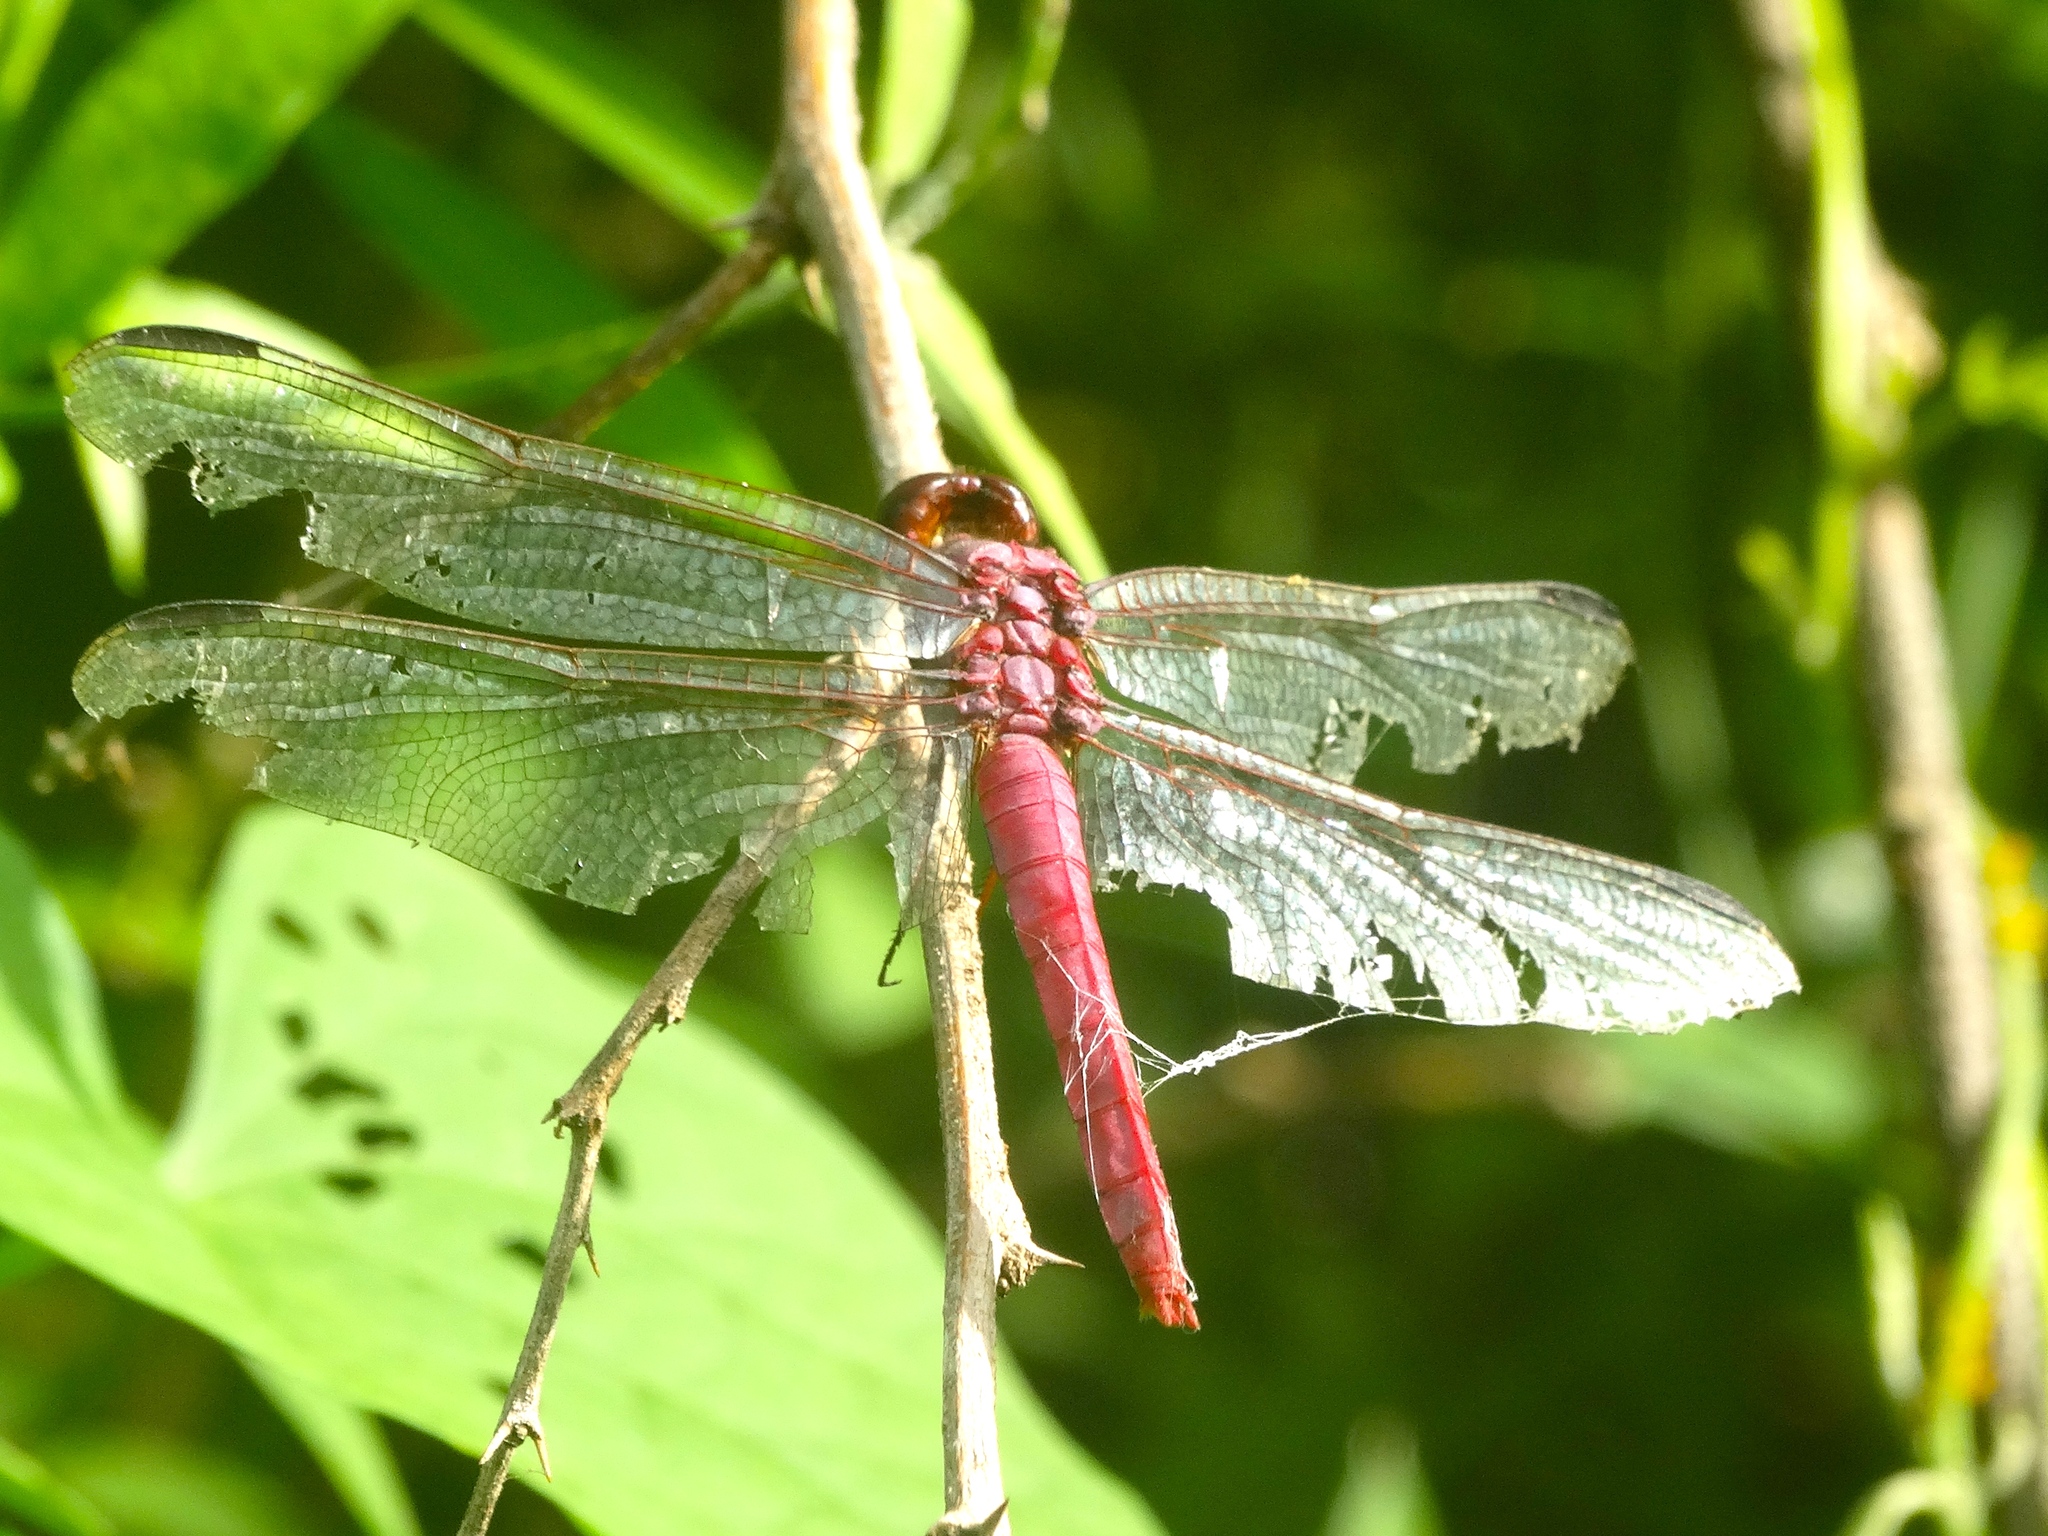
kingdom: Animalia
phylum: Arthropoda
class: Insecta
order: Odonata
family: Libellulidae
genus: Orthemis
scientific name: Orthemis
